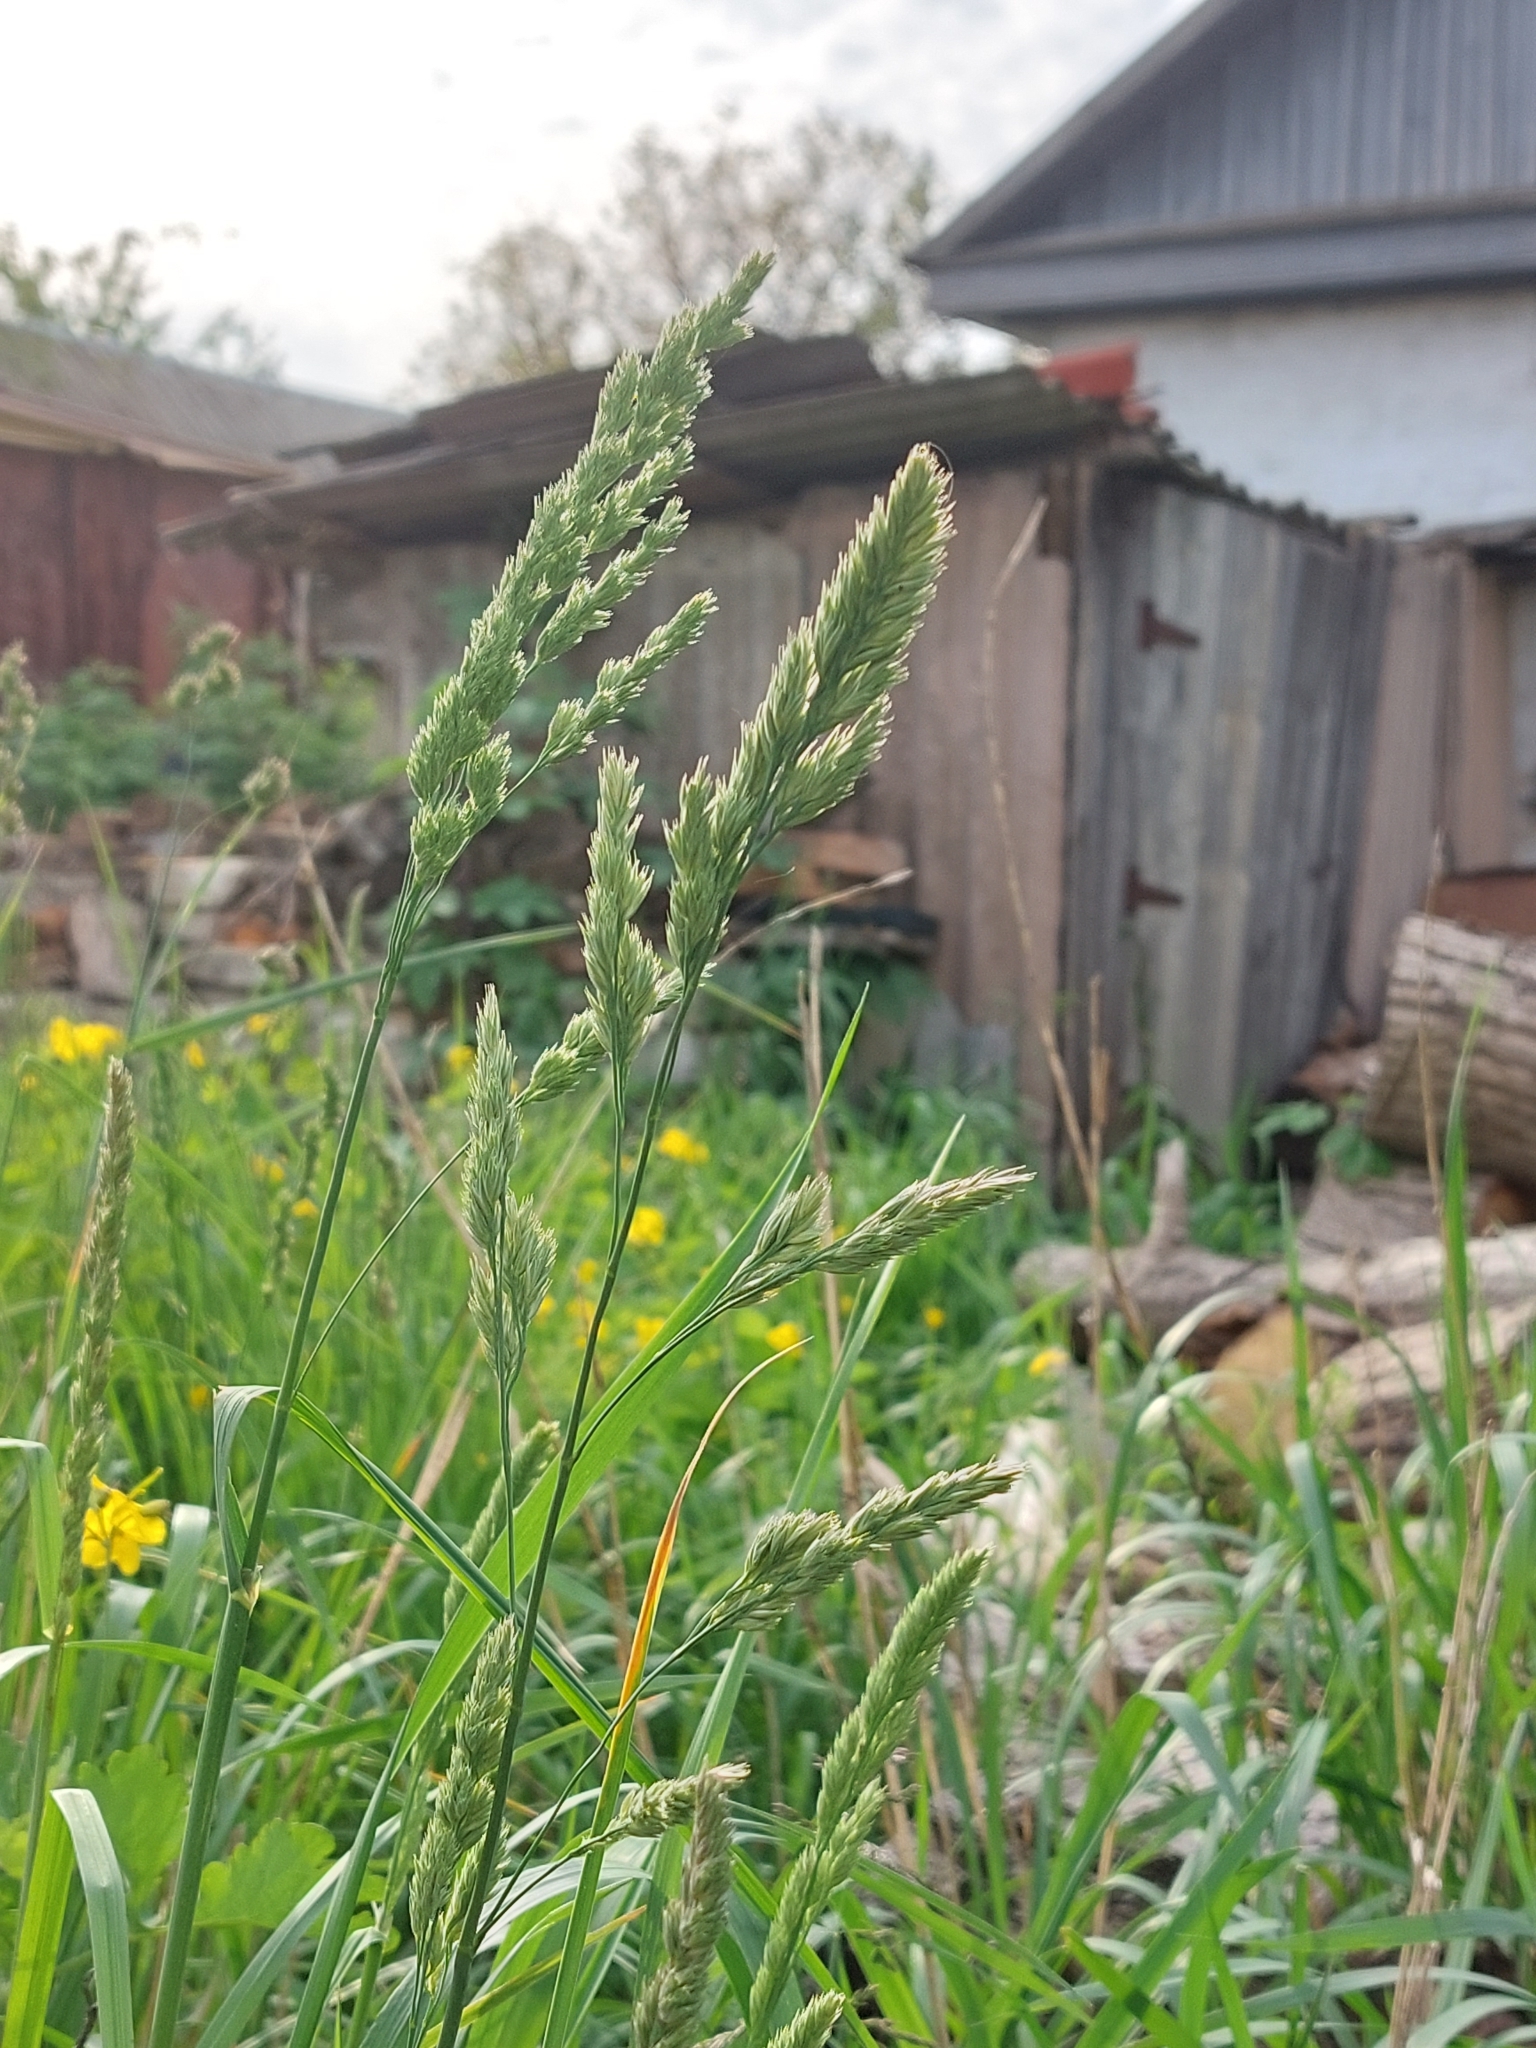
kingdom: Plantae
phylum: Tracheophyta
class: Liliopsida
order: Poales
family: Poaceae
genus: Dactylis
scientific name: Dactylis glomerata
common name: Orchardgrass
